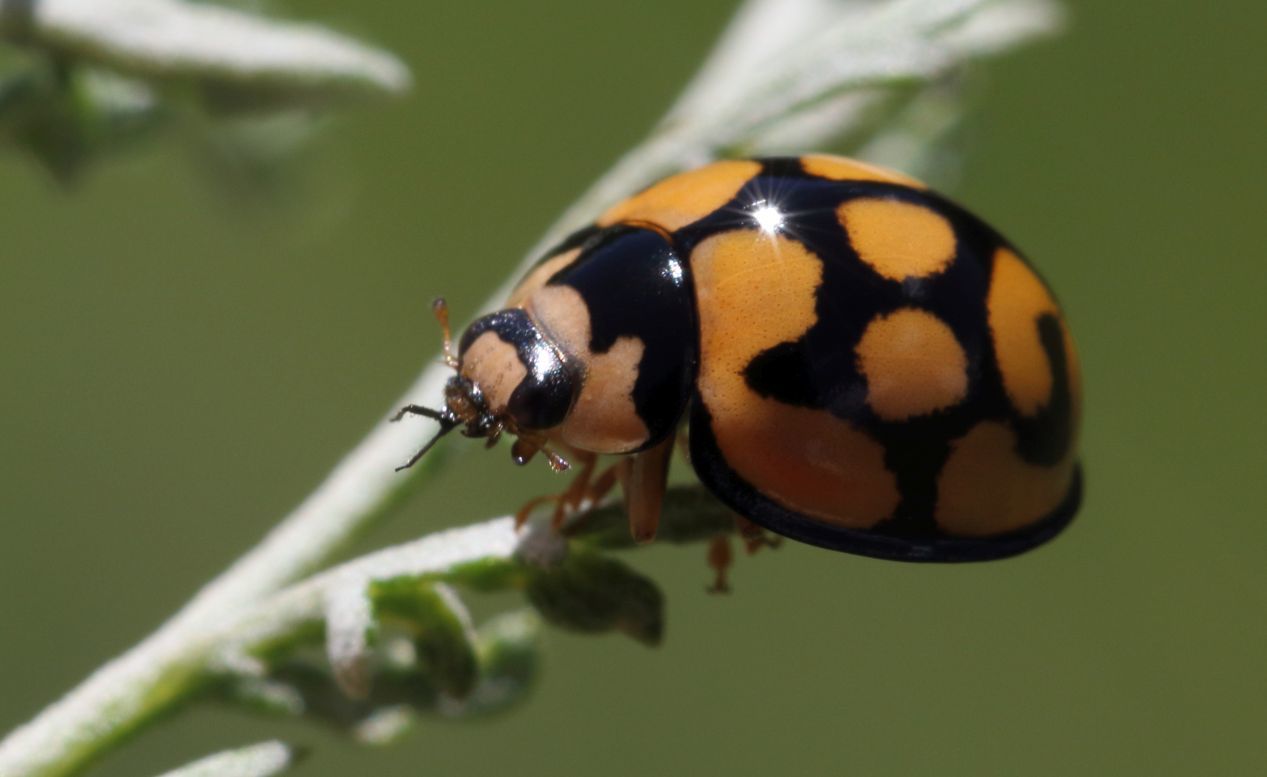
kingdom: Animalia
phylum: Arthropoda
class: Insecta
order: Coleoptera
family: Coccinellidae
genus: Cheilomenes
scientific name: Cheilomenes lunata
